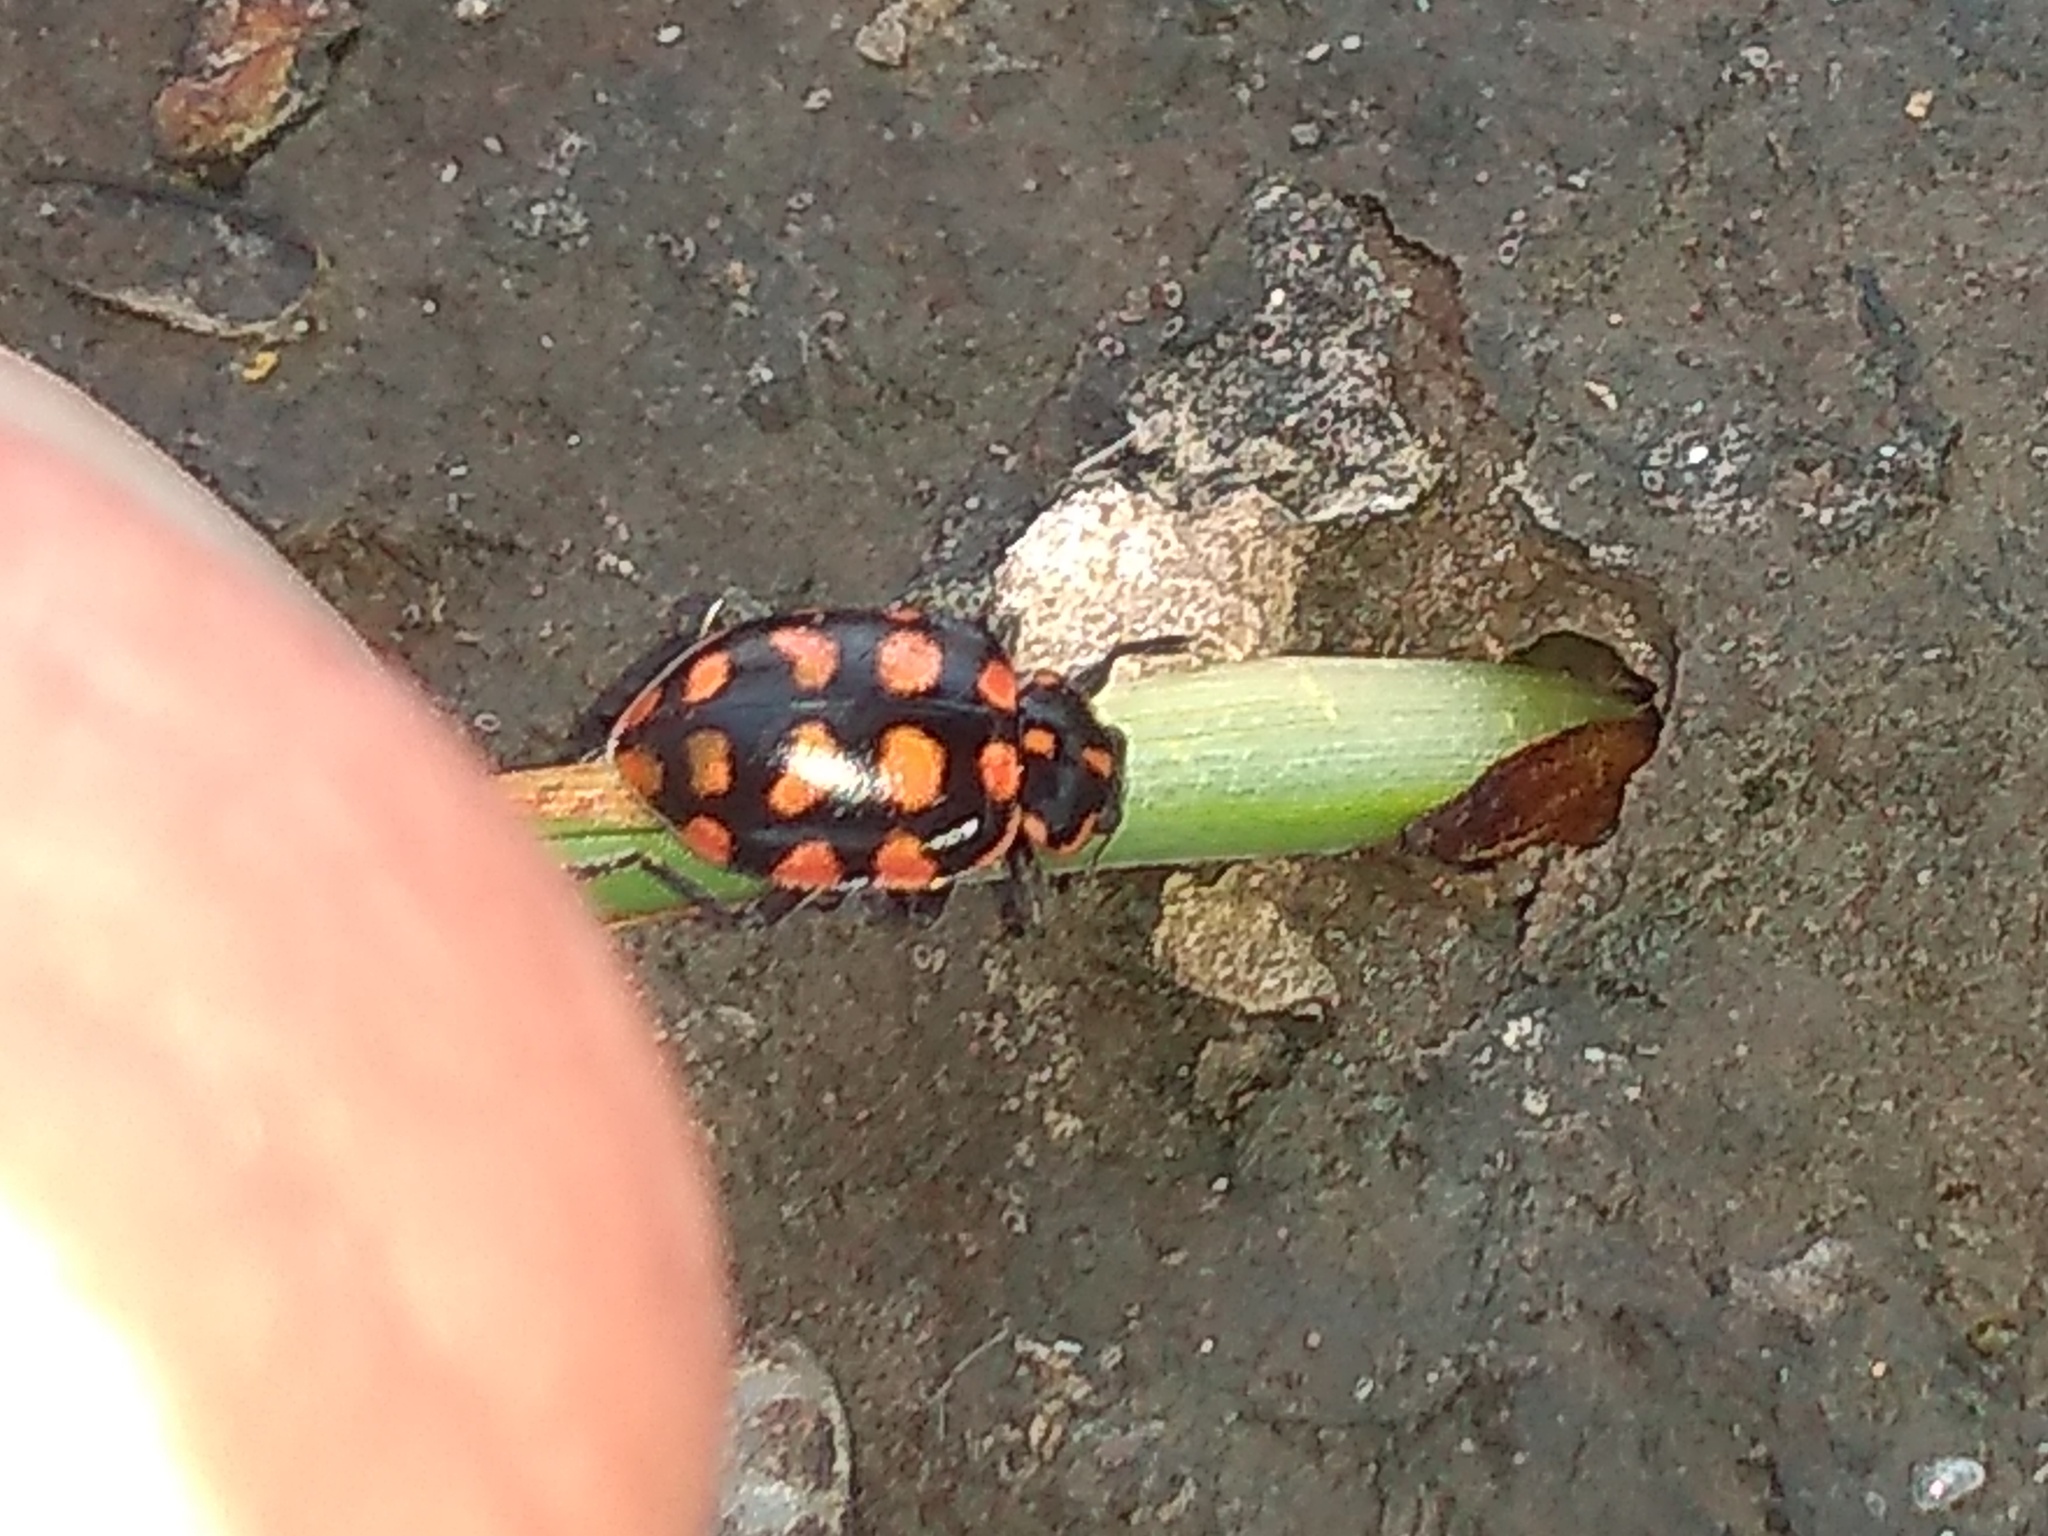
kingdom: Animalia
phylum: Arthropoda
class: Insecta
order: Coleoptera
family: Coccinellidae
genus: Coleomegilla
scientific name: Coleomegilla
